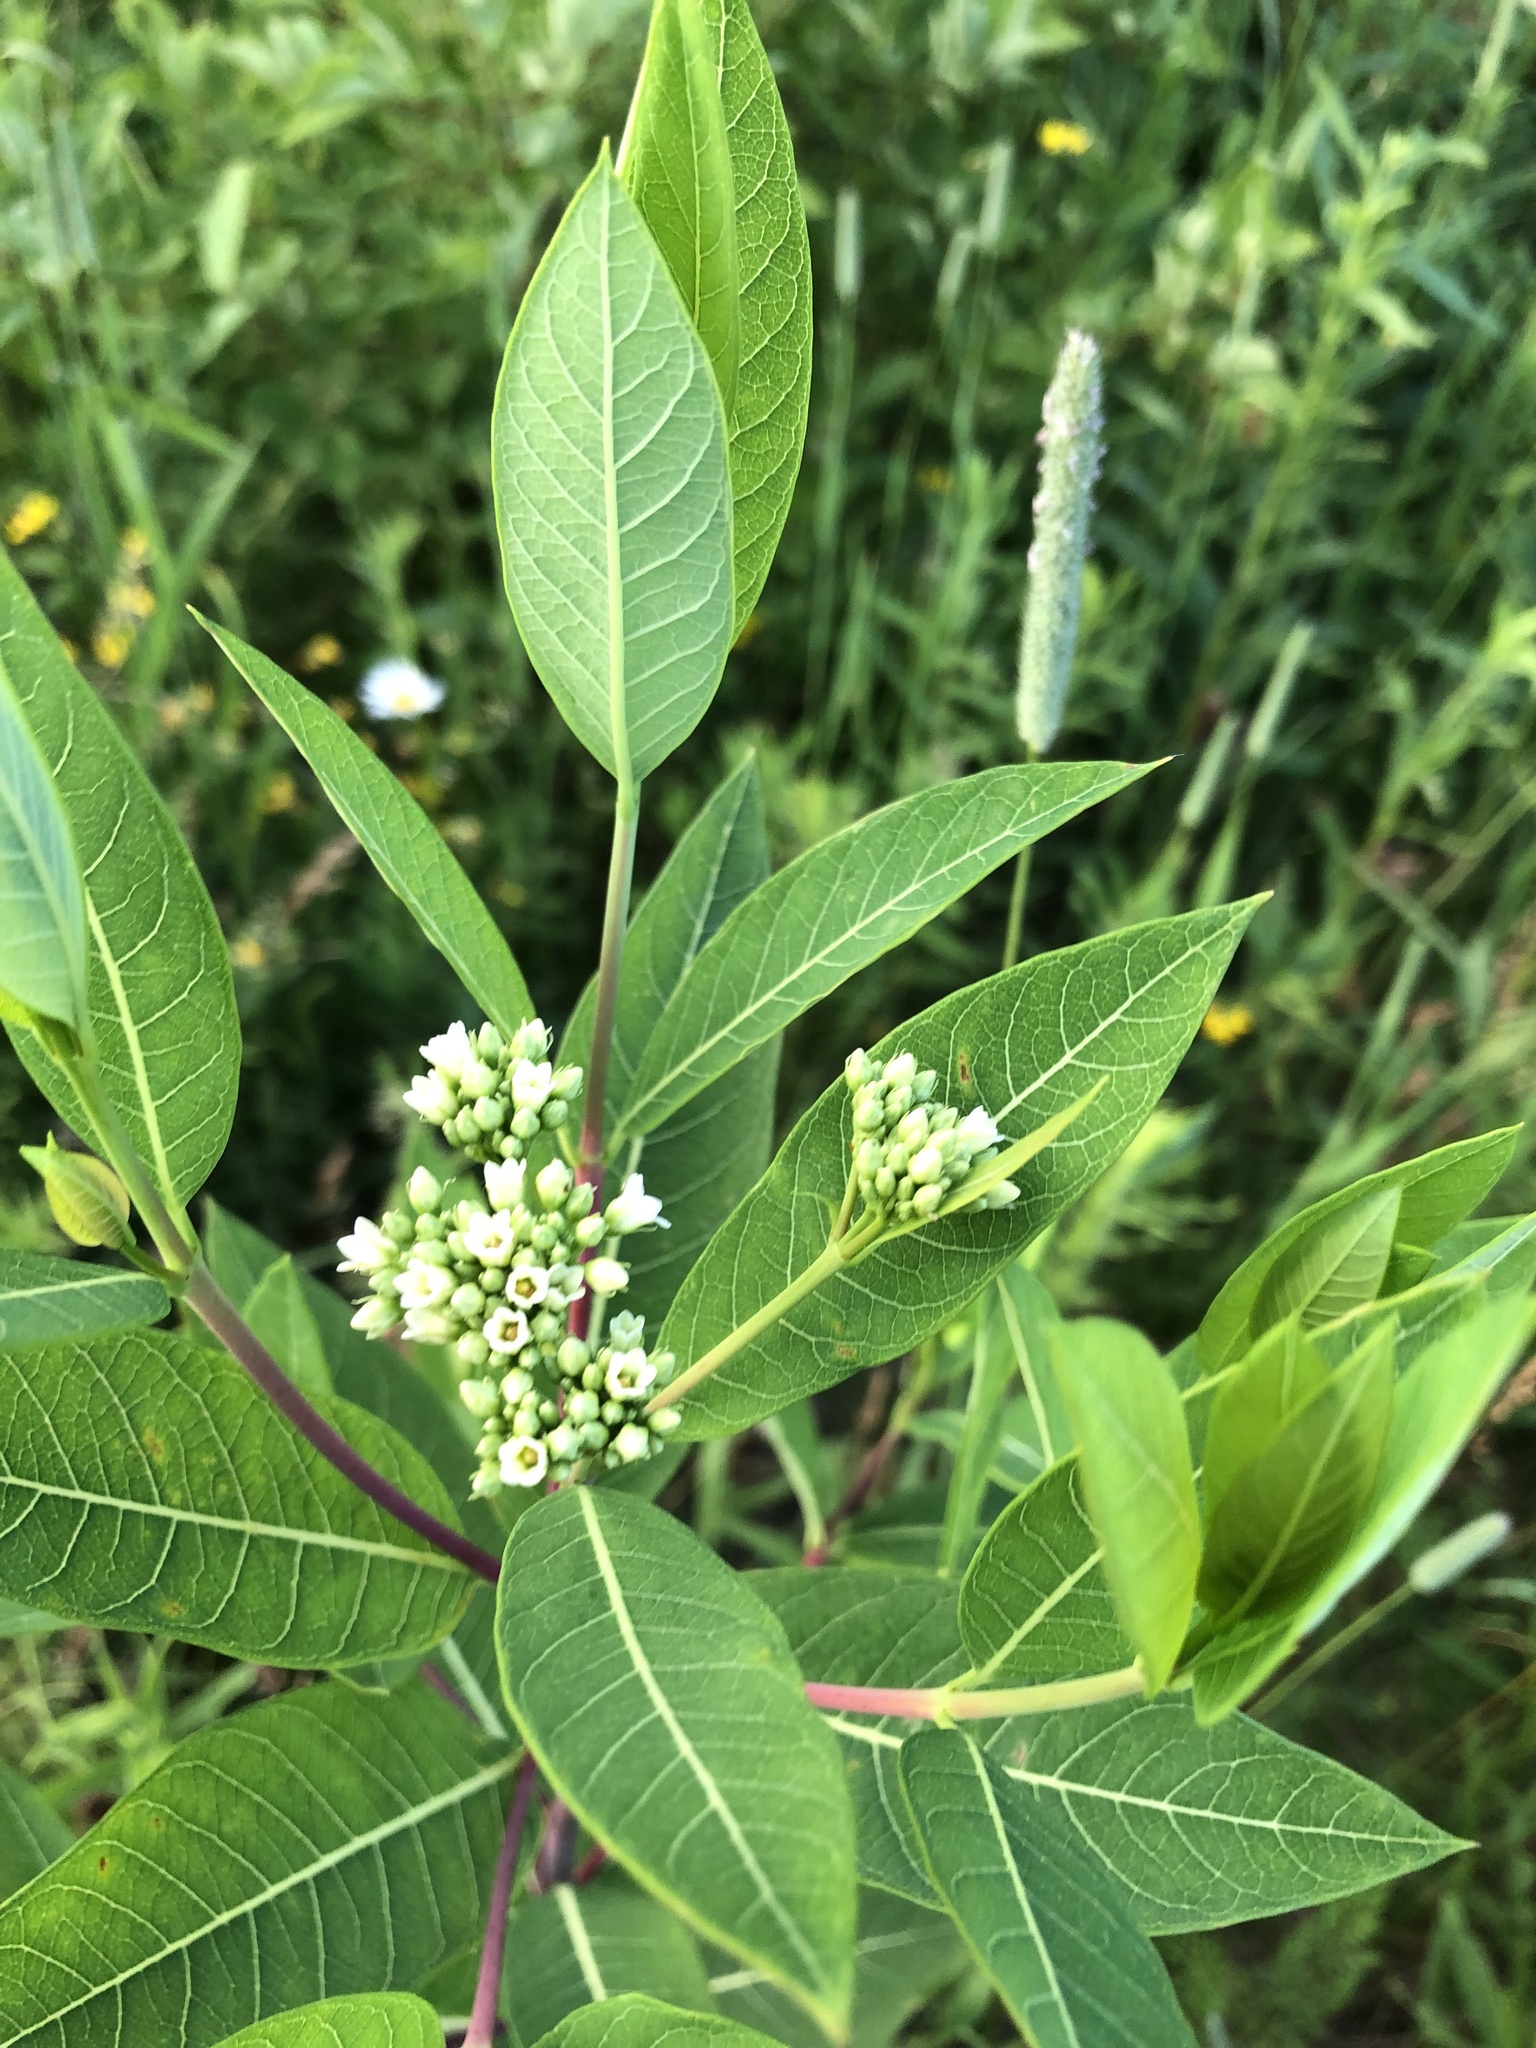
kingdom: Plantae
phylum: Tracheophyta
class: Magnoliopsida
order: Gentianales
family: Apocynaceae
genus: Apocynum
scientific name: Apocynum cannabinum
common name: Hemp dogbane
